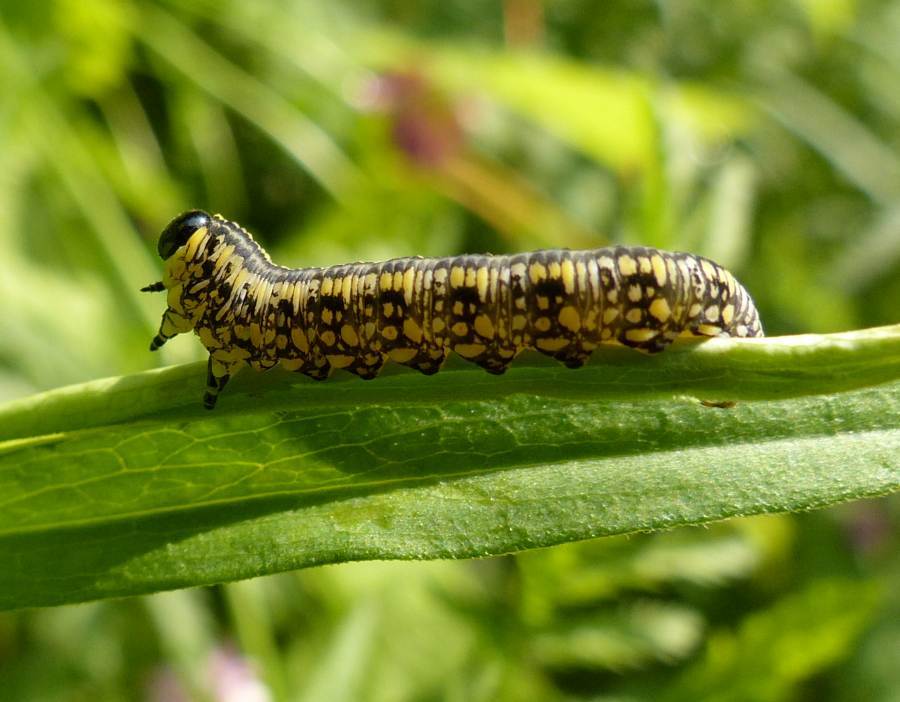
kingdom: Animalia
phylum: Arthropoda
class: Insecta
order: Hymenoptera
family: Diprionidae
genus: Diprion
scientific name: Diprion similis
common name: Pine sawfly
